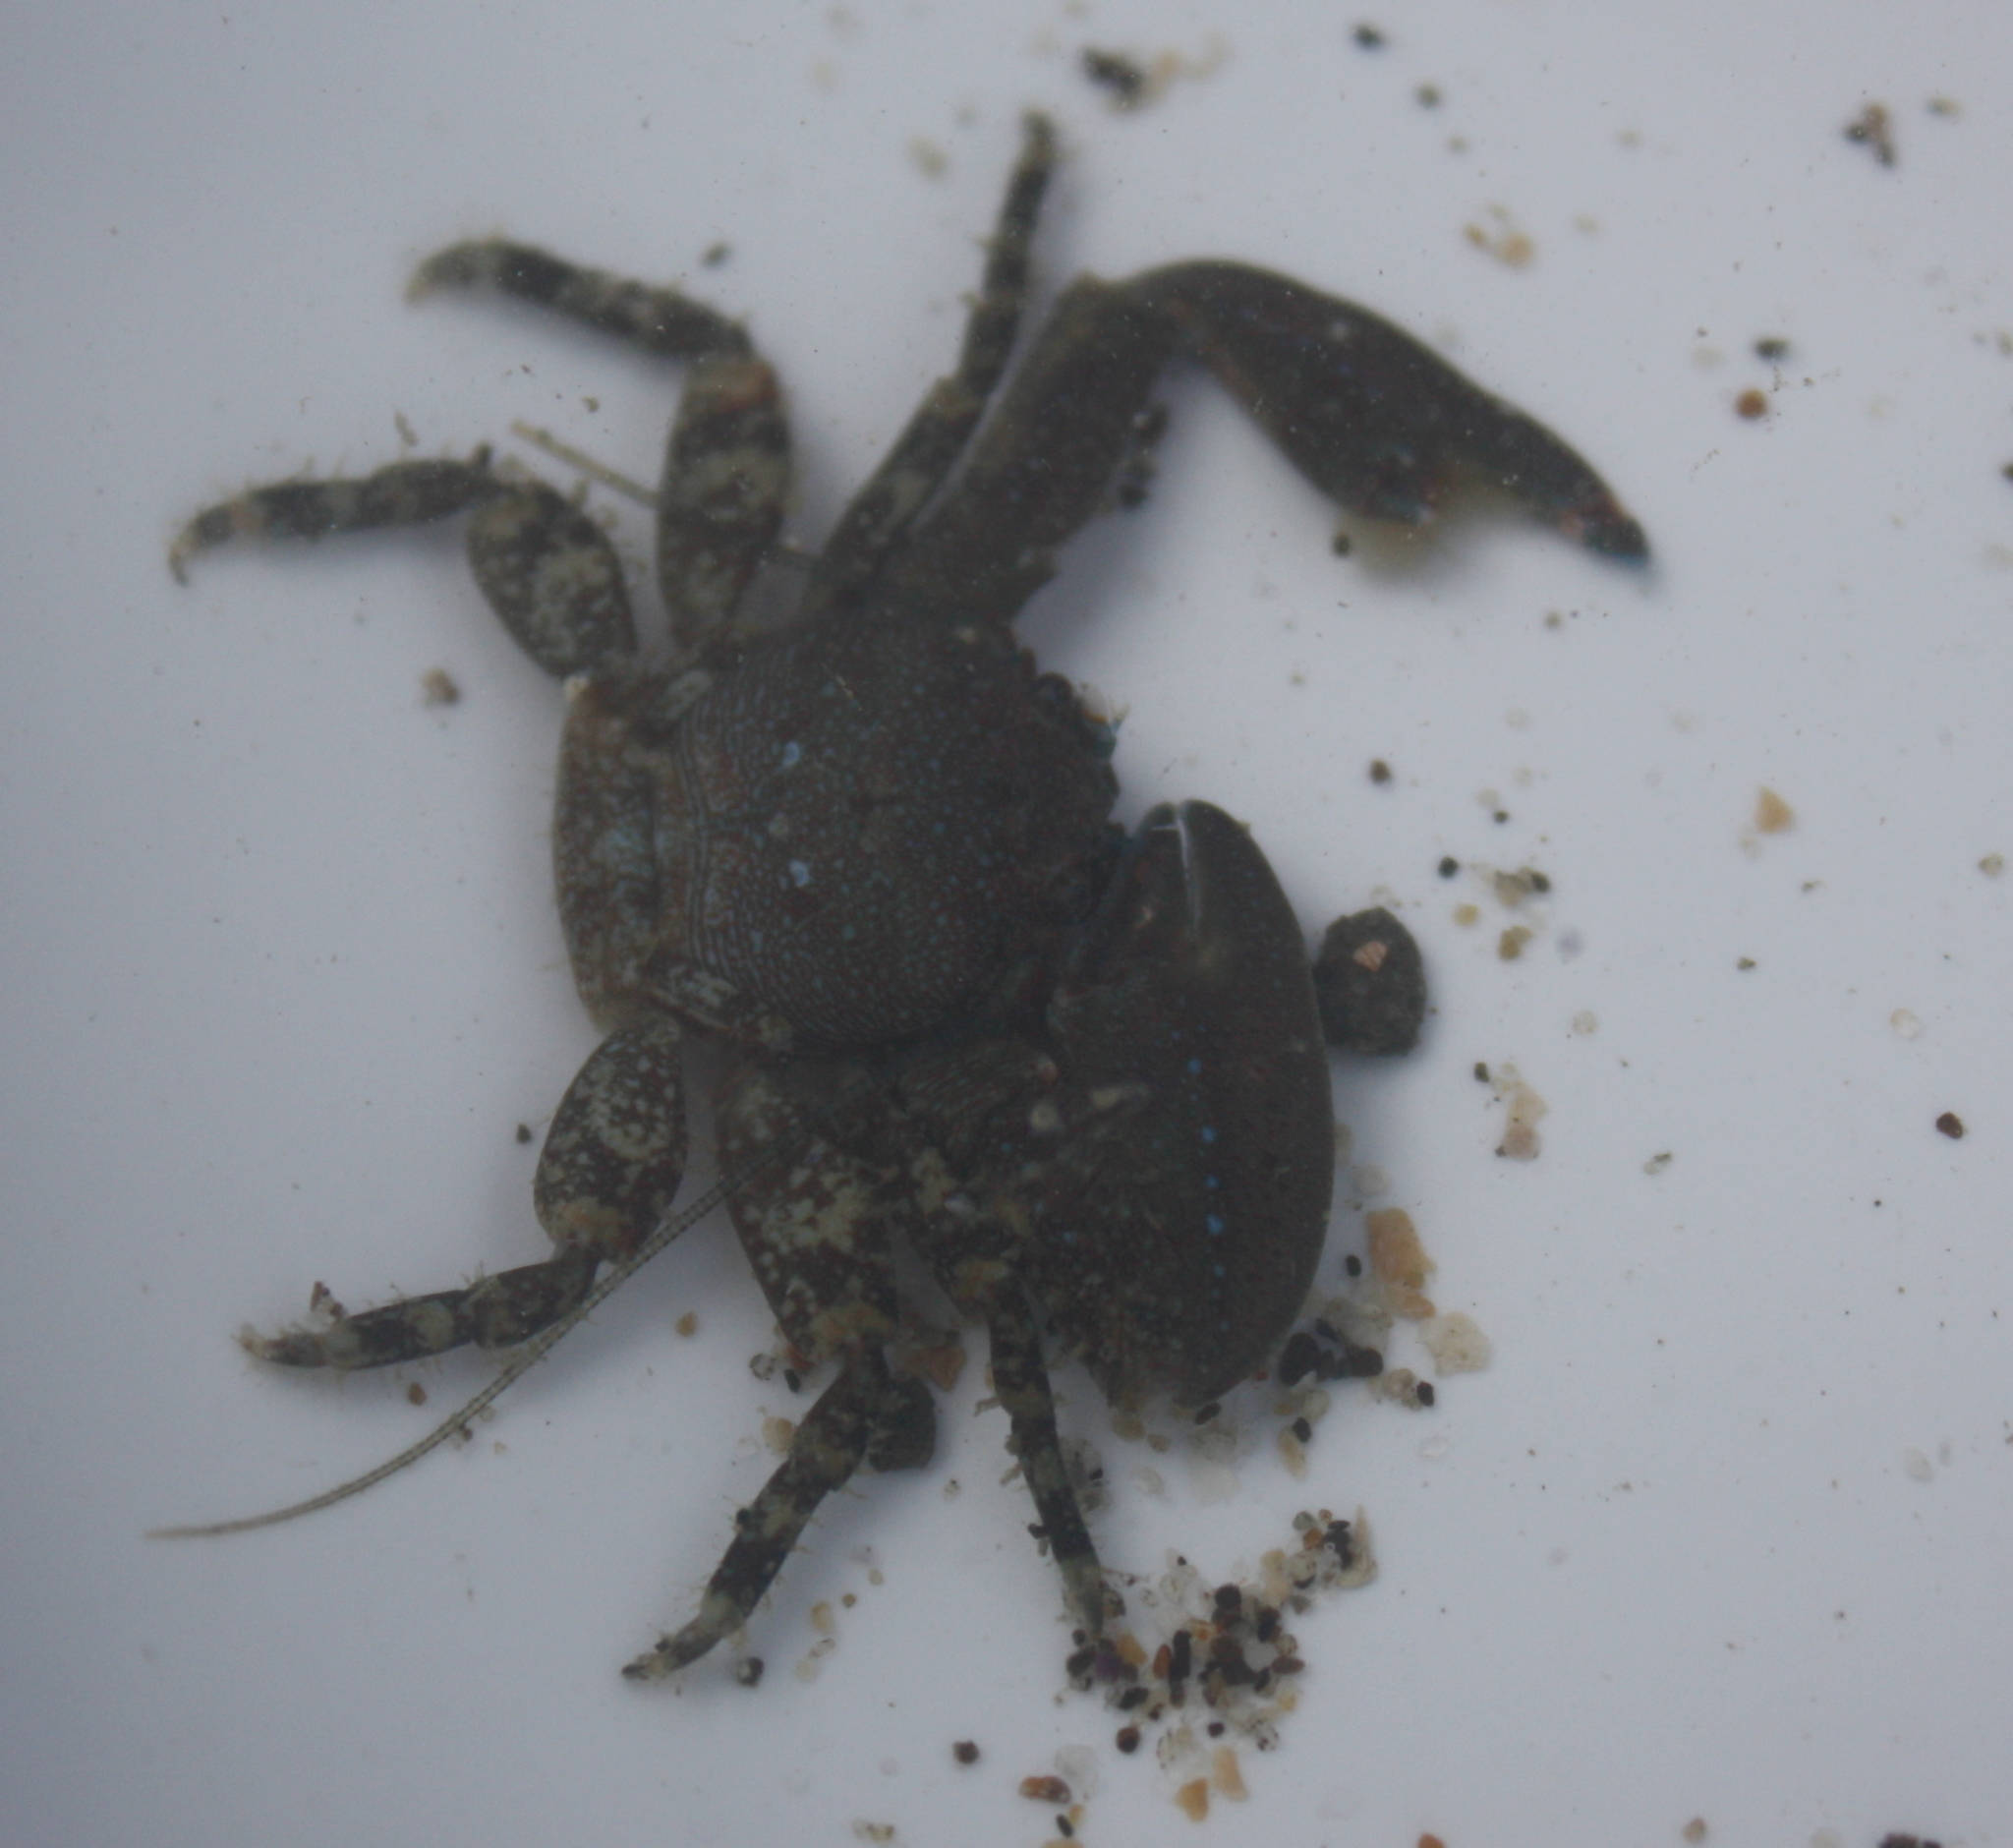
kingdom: Animalia
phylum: Arthropoda
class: Malacostraca
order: Decapoda
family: Porcellanidae
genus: Petrolisthes
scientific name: Petrolisthes eriomerus
